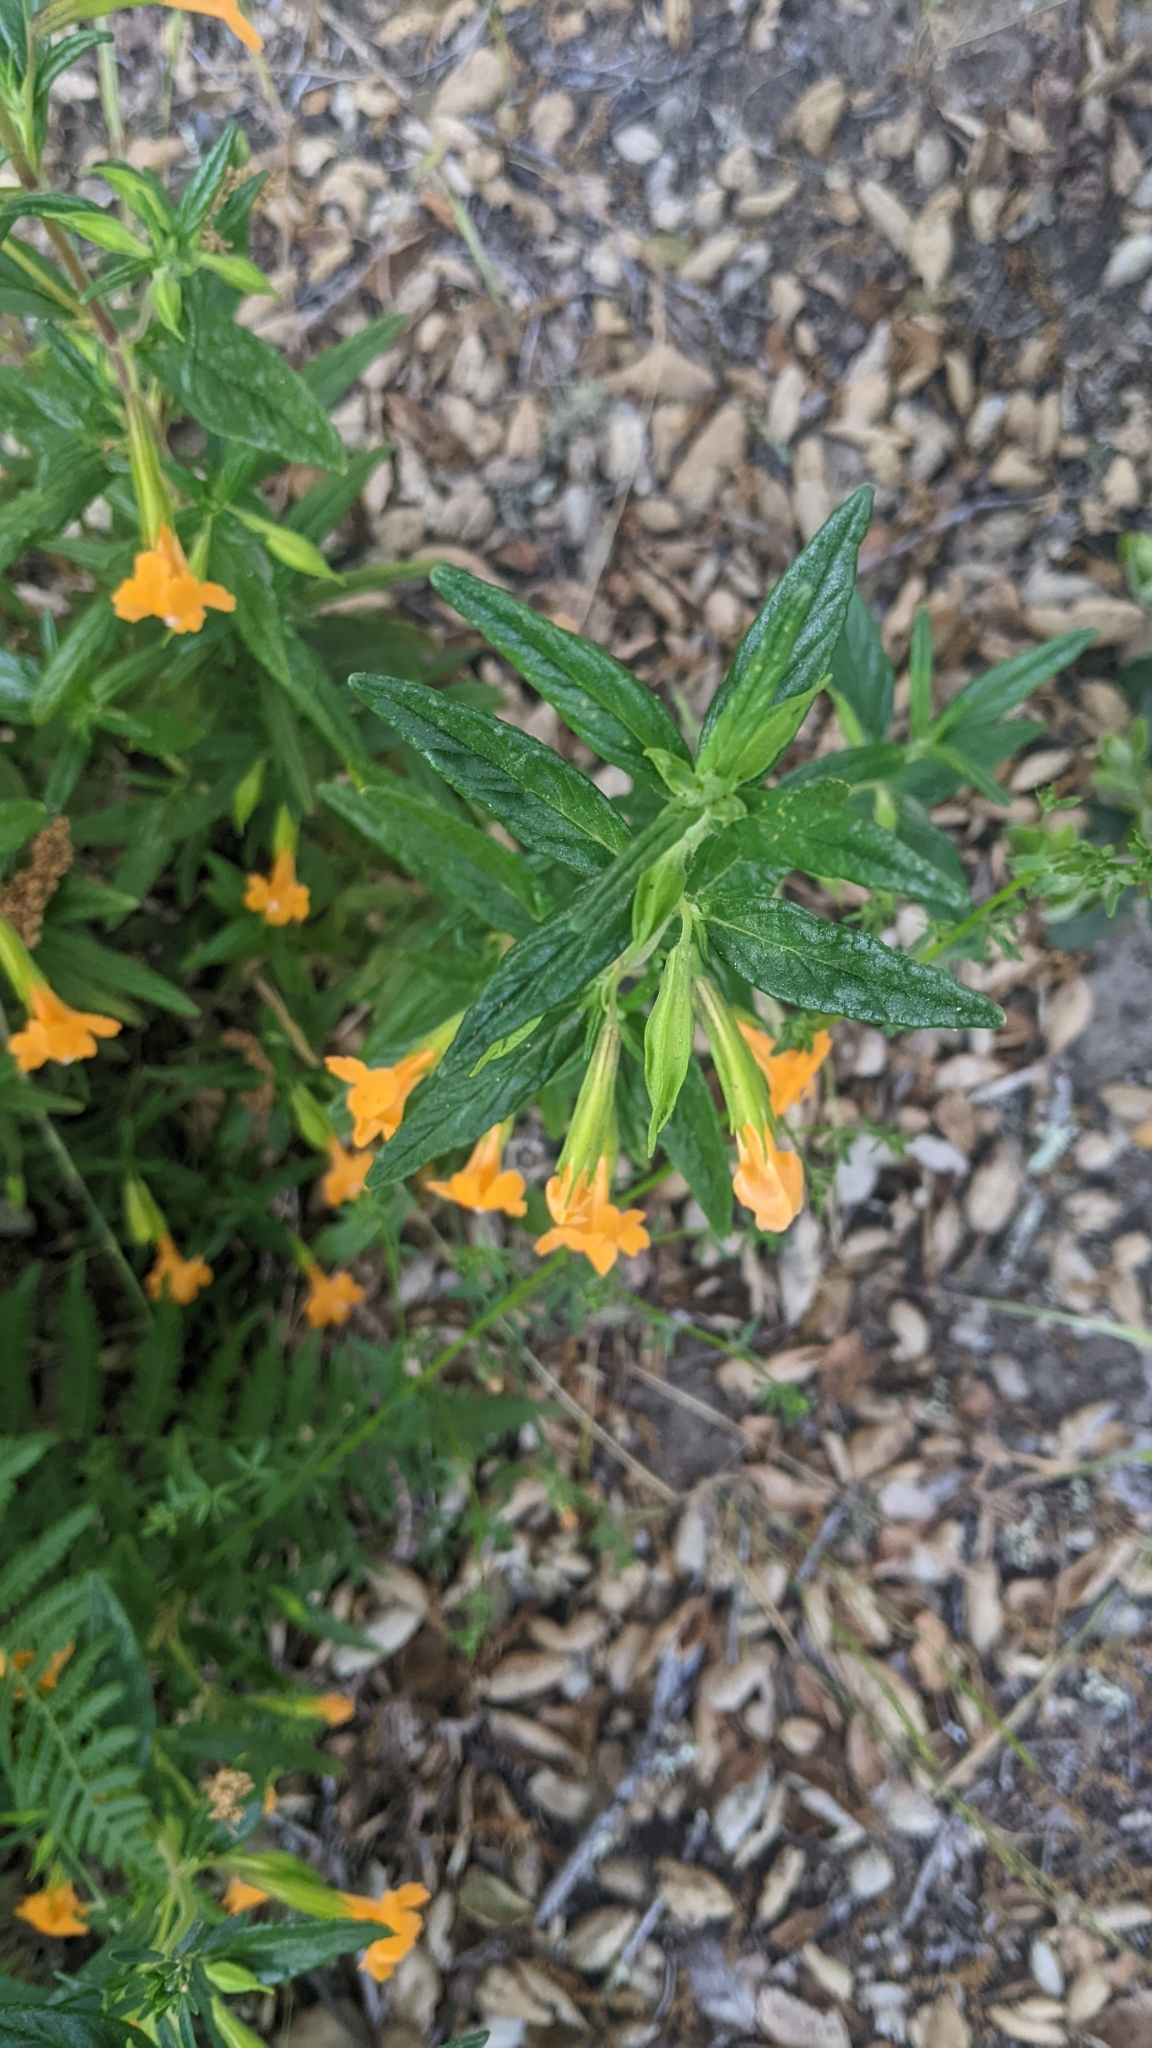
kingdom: Plantae
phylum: Tracheophyta
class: Magnoliopsida
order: Lamiales
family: Phrymaceae
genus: Diplacus
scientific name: Diplacus aurantiacus
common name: Bush monkey-flower
